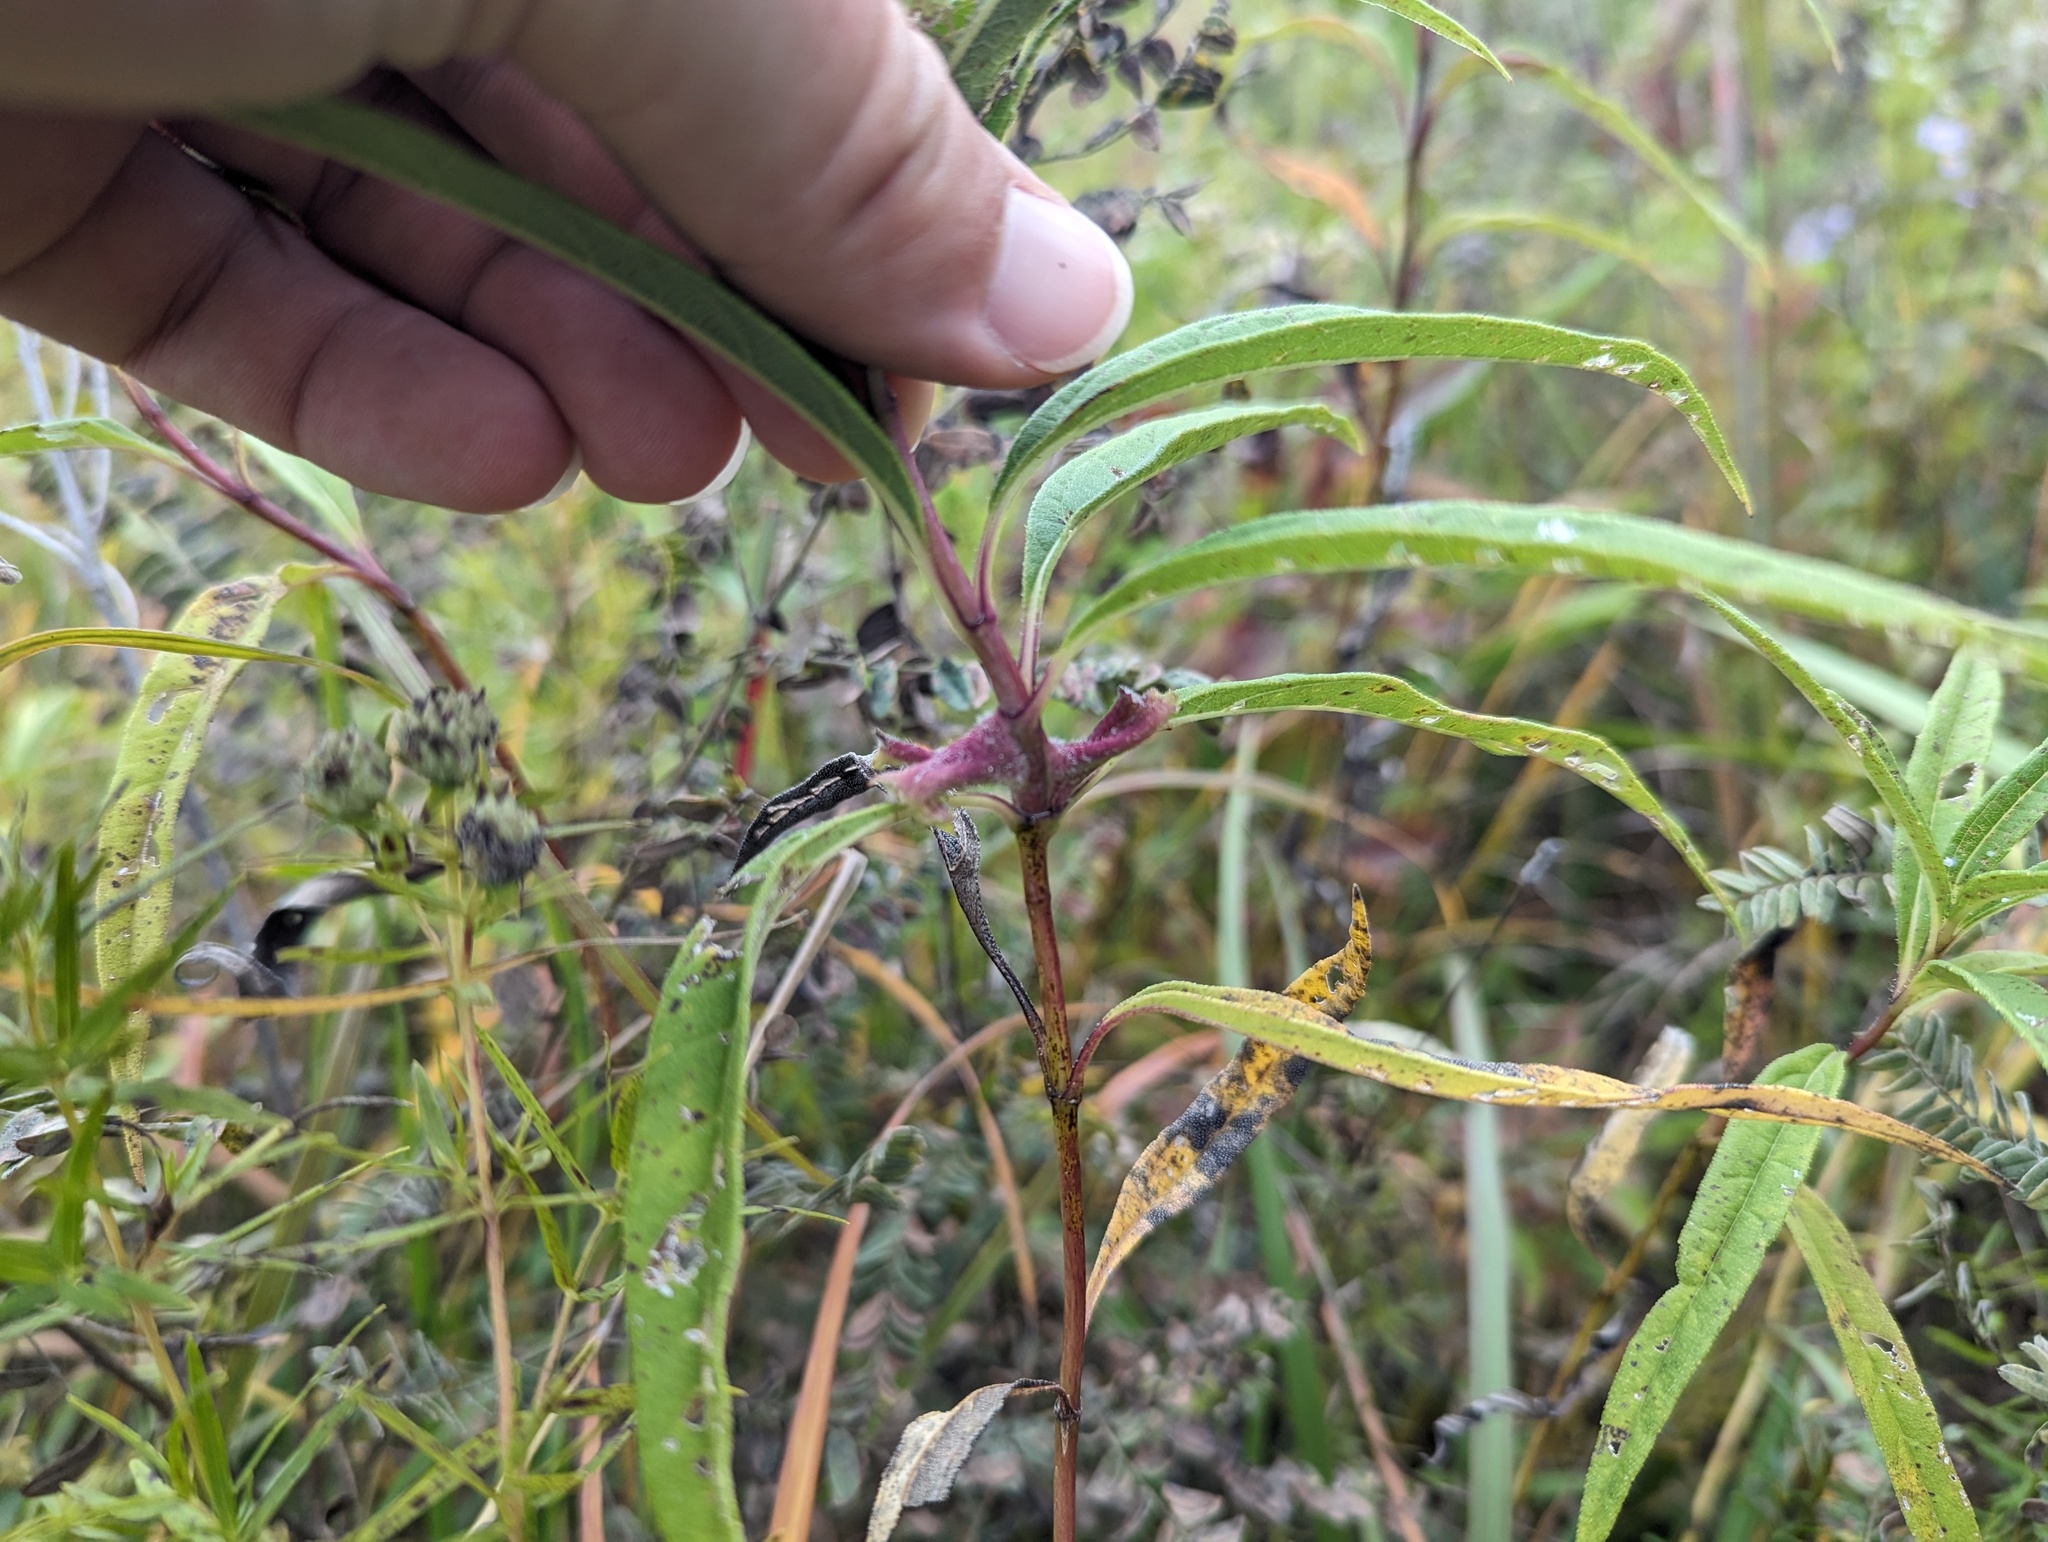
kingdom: Animalia
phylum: Arthropoda
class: Insecta
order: Diptera
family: Cecidomyiidae
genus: Olpodiplosis
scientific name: Olpodiplosis helianthi
